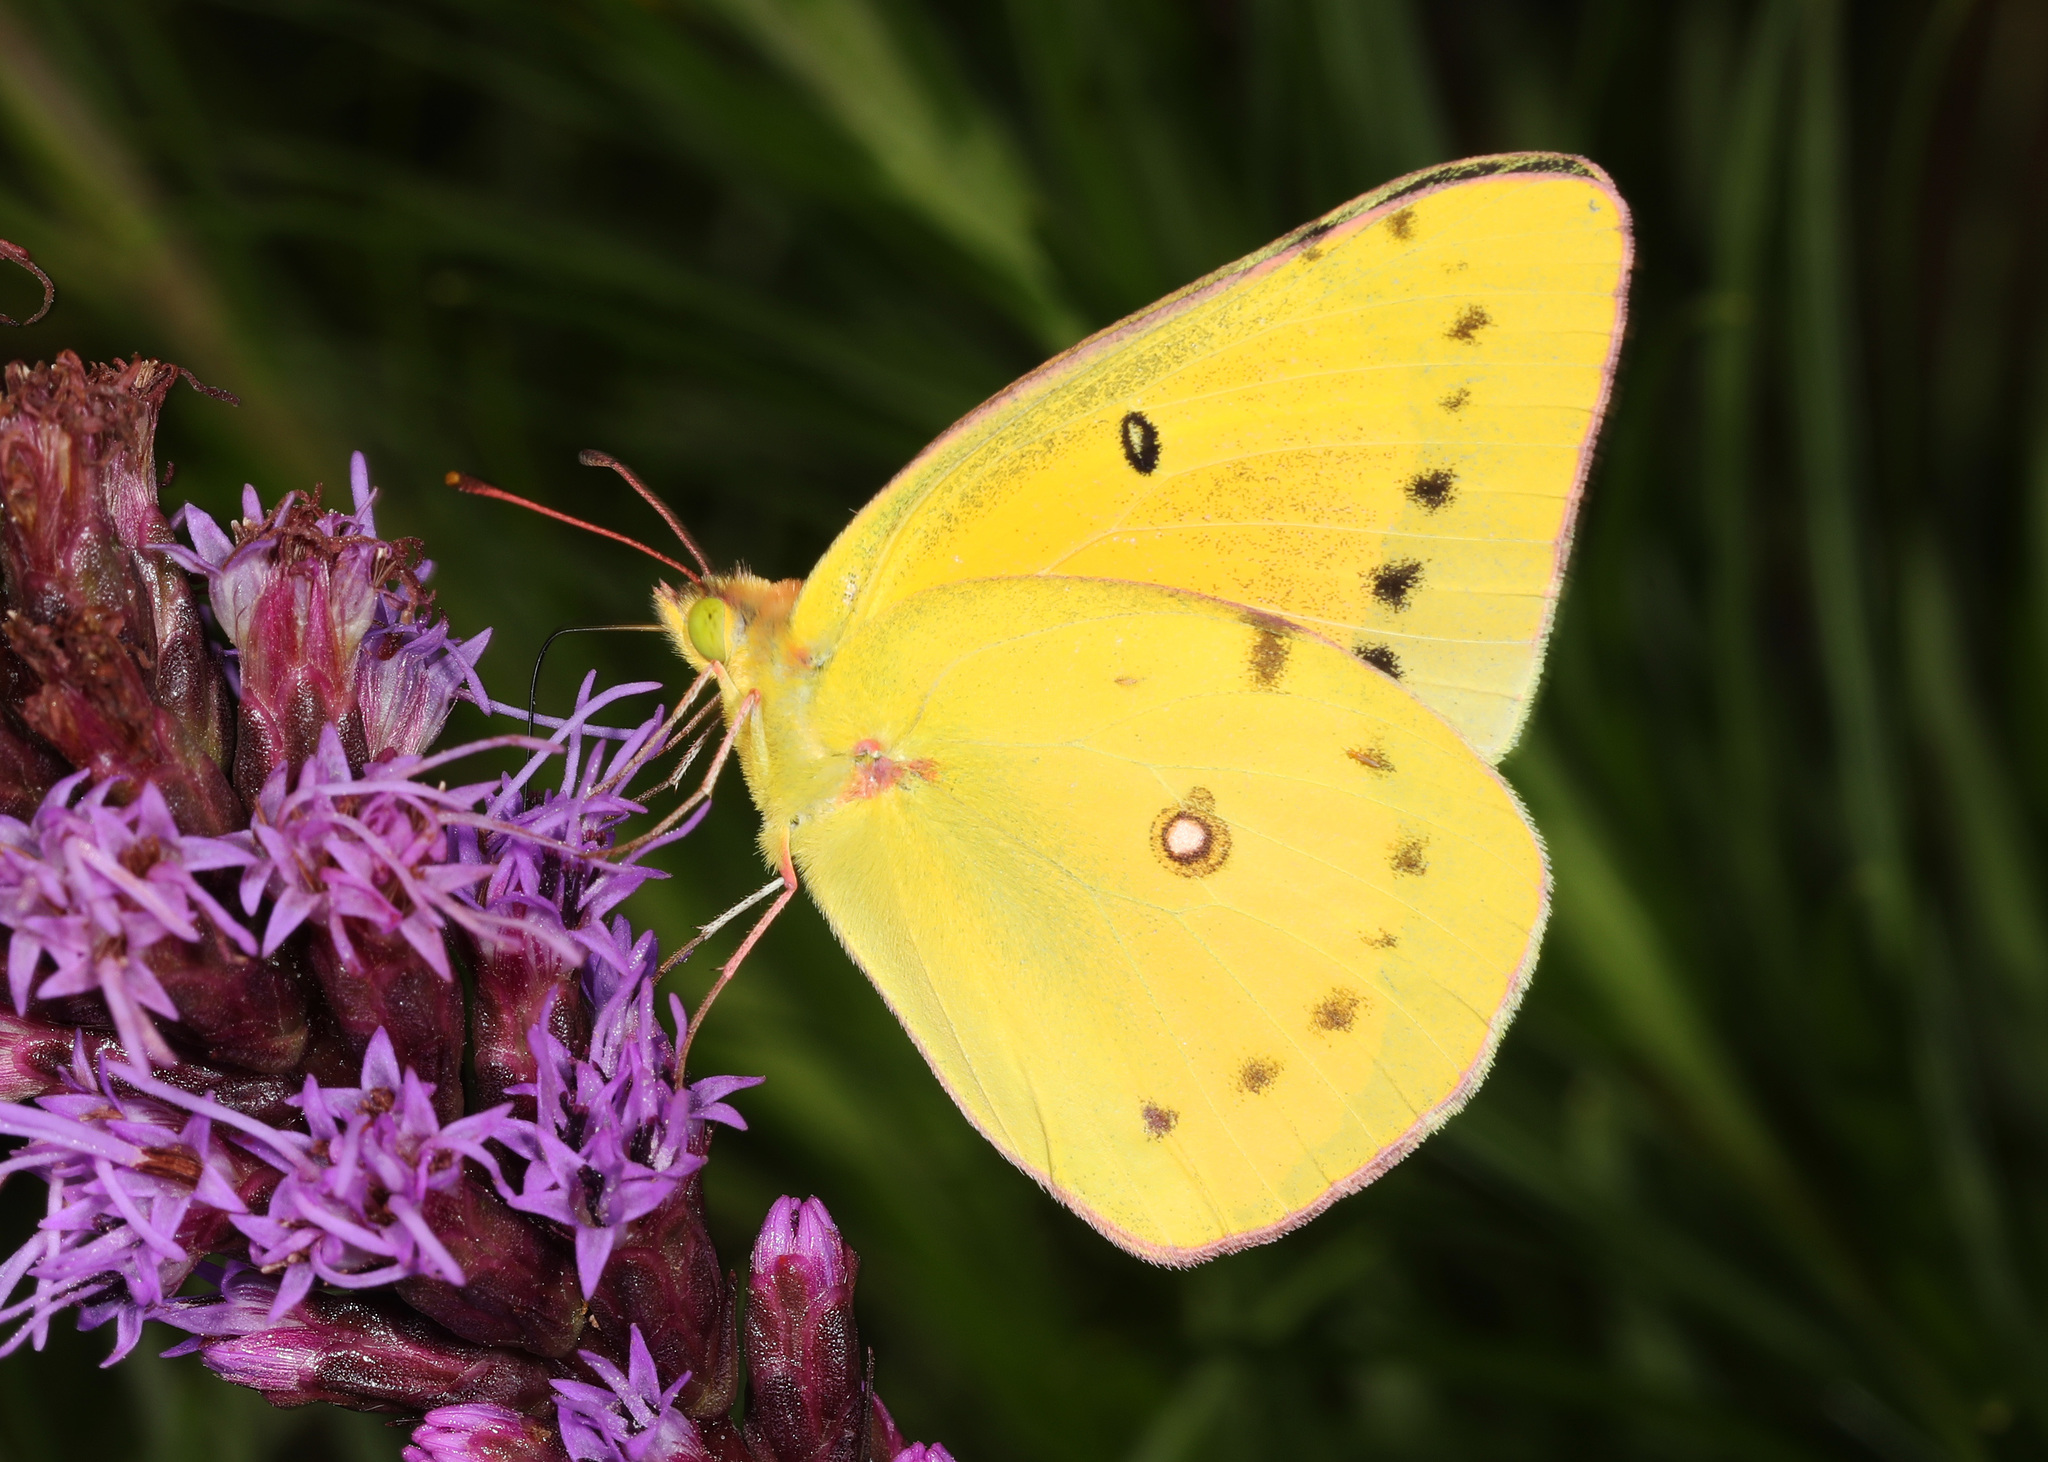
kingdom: Animalia
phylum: Arthropoda
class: Insecta
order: Lepidoptera
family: Pieridae
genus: Colias
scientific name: Colias eurytheme
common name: Alfalfa butterfly
